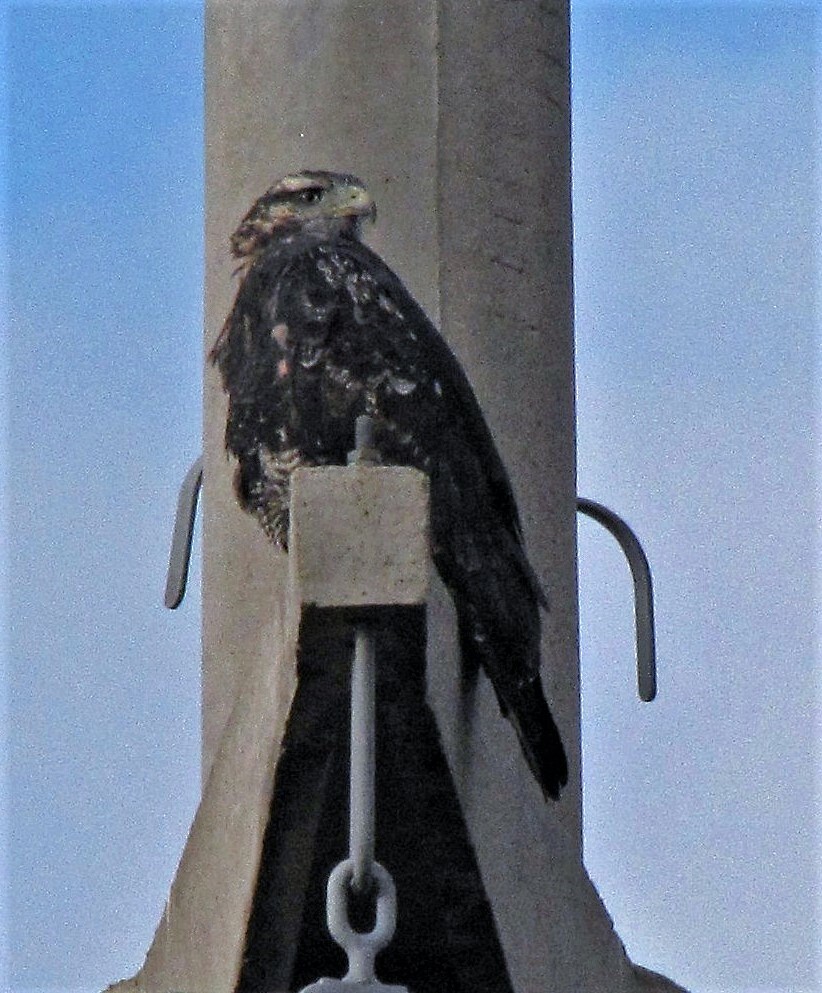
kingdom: Animalia
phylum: Chordata
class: Aves
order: Accipitriformes
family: Accipitridae
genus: Geranoaetus
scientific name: Geranoaetus melanoleucus
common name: Black-chested buzzard-eagle
